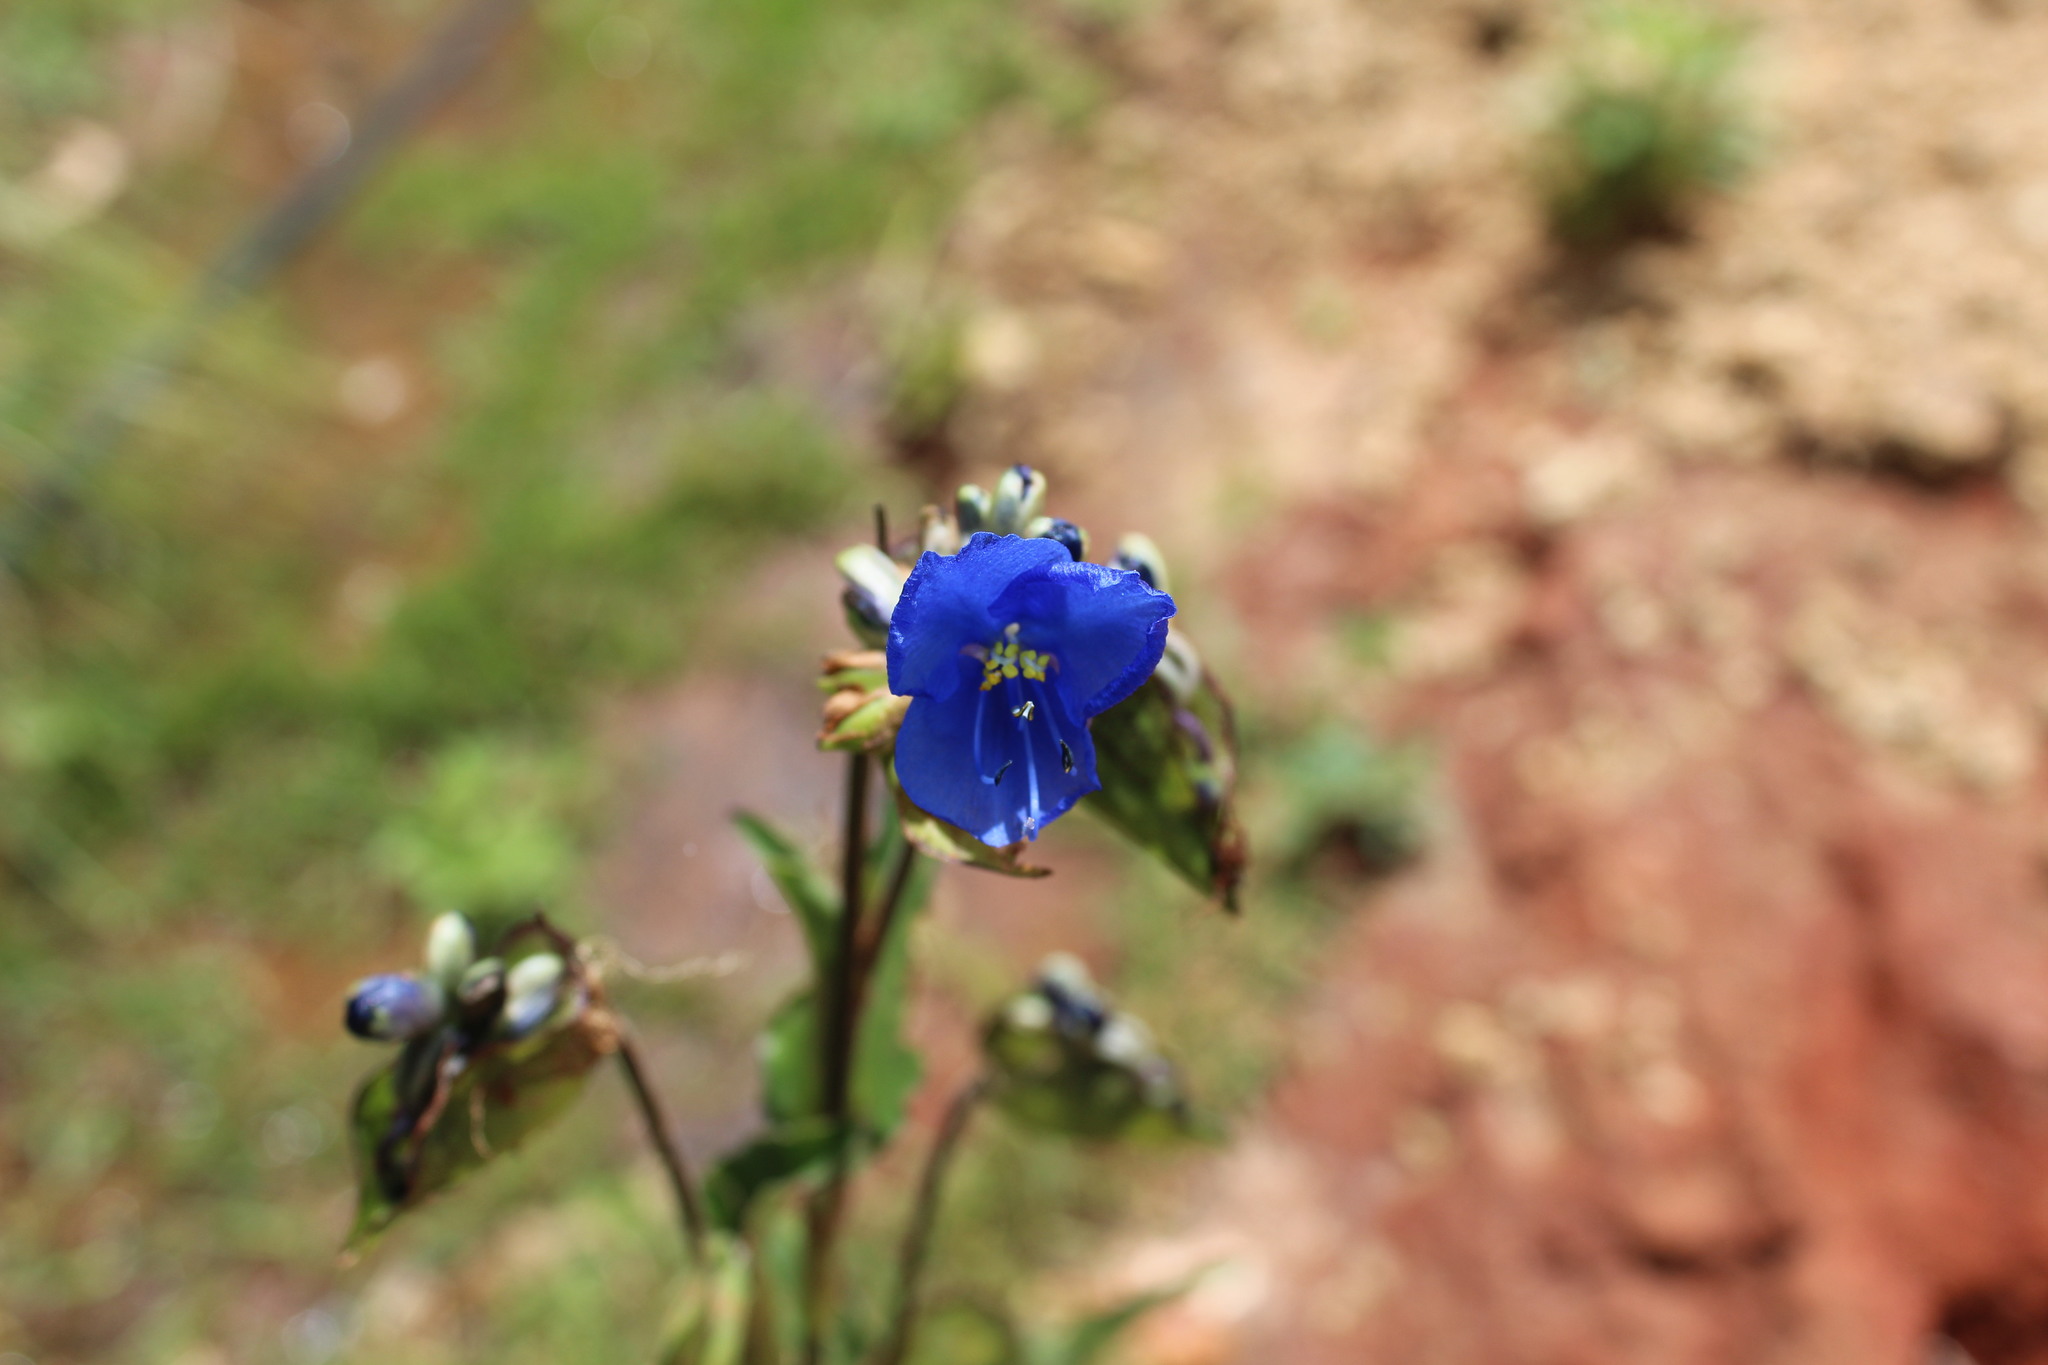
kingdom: Plantae
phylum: Tracheophyta
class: Liliopsida
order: Commelinales
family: Commelinaceae
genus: Commelina
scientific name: Commelina tuberosa
